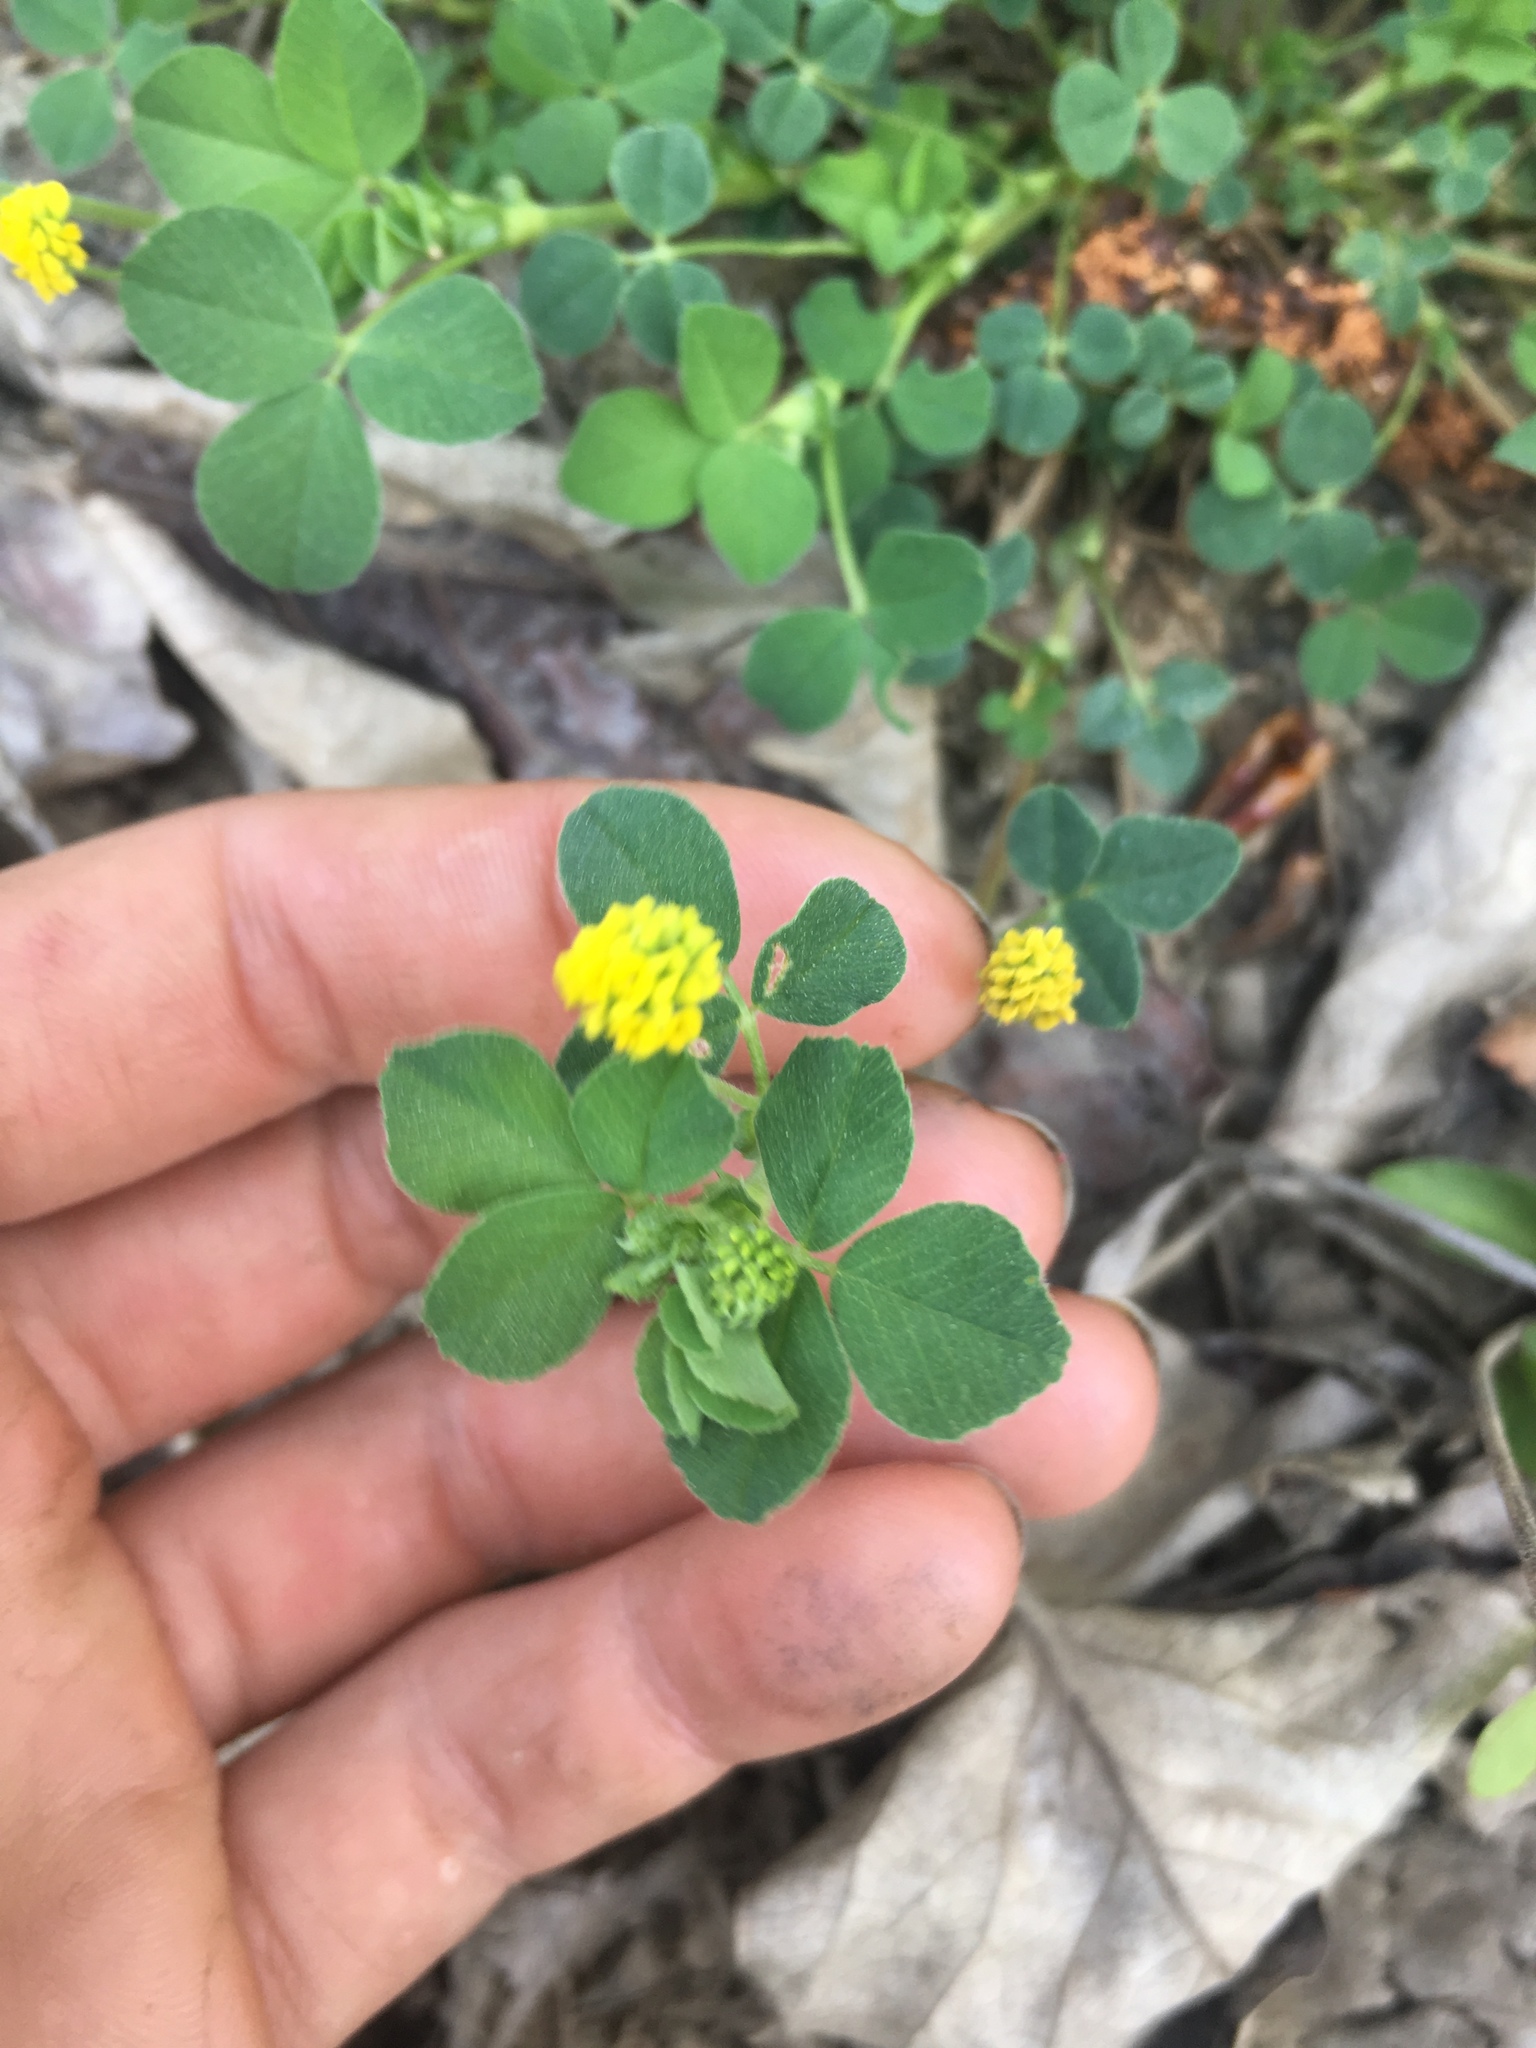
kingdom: Plantae
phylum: Tracheophyta
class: Magnoliopsida
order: Fabales
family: Fabaceae
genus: Medicago
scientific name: Medicago lupulina
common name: Black medick
